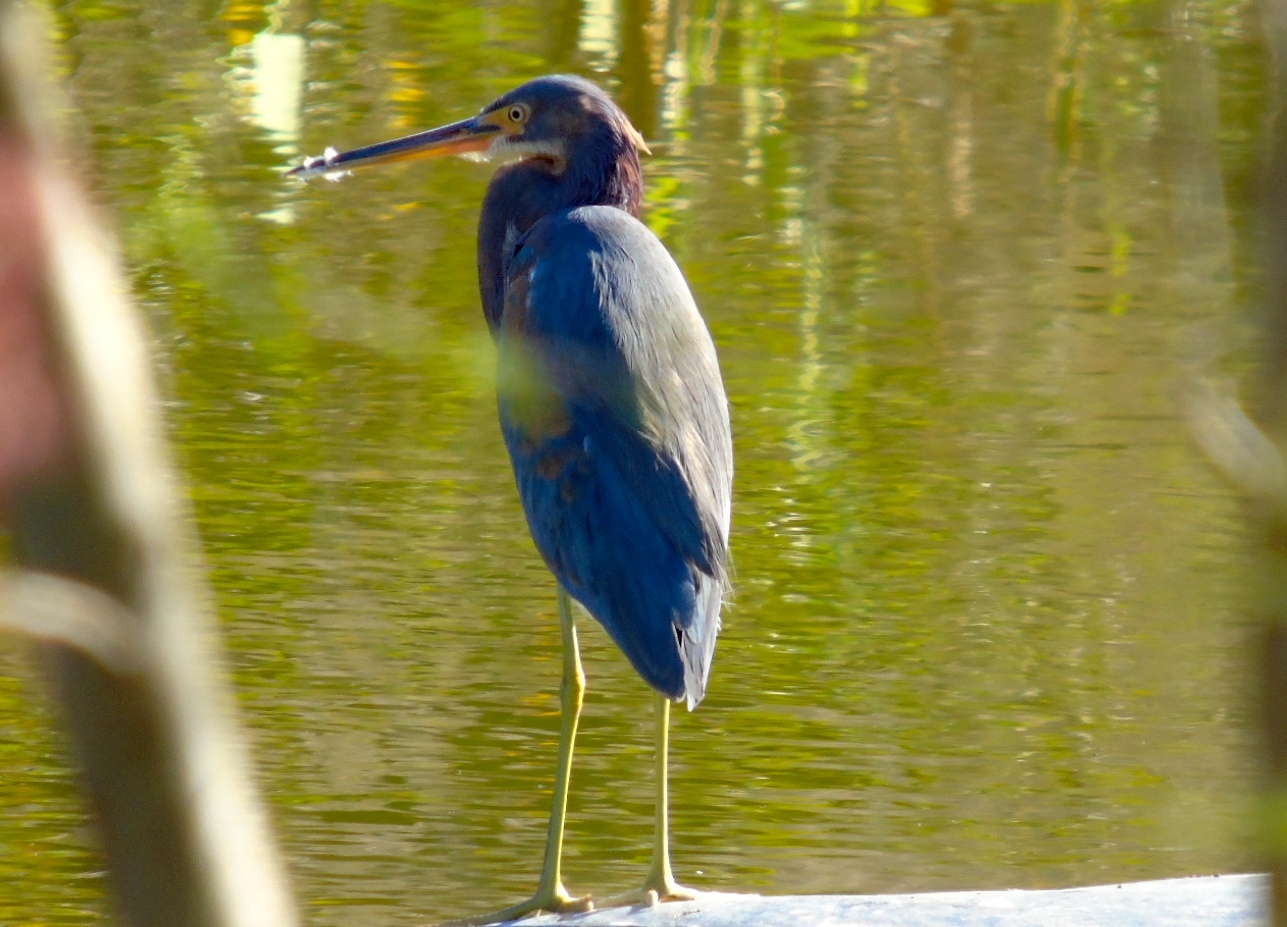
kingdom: Animalia
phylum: Chordata
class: Aves
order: Pelecaniformes
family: Ardeidae
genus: Egretta
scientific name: Egretta tricolor
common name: Tricolored heron
